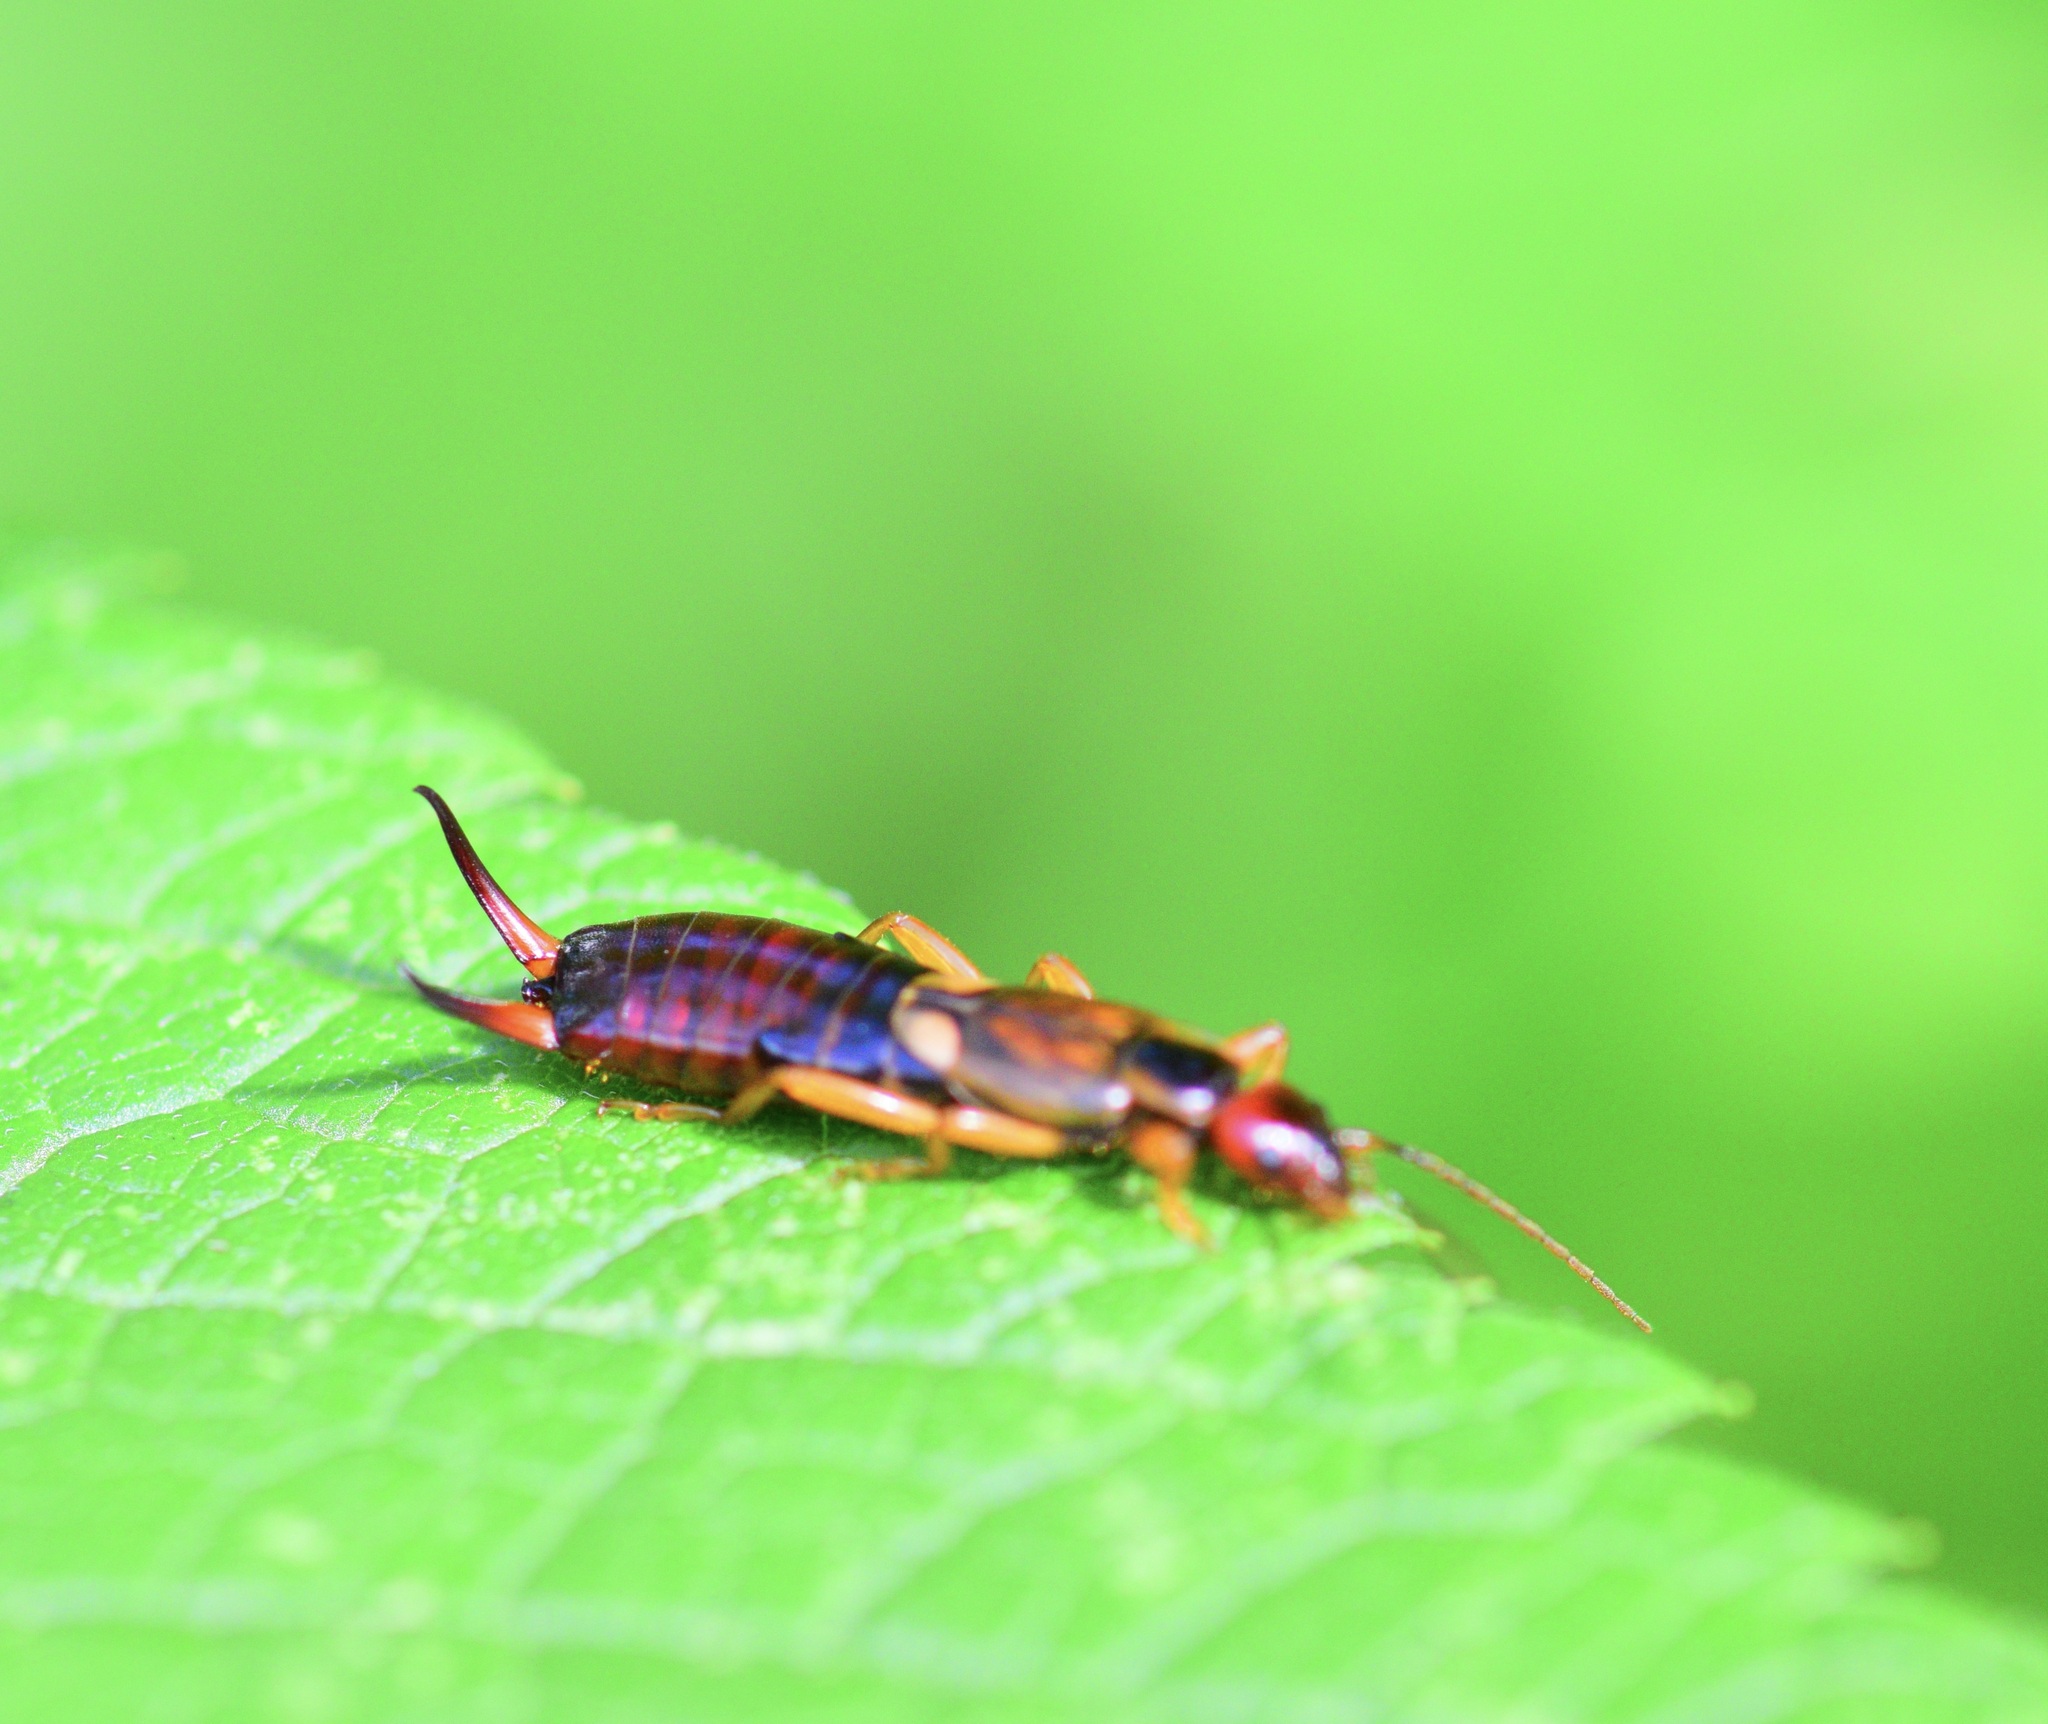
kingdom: Animalia
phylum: Arthropoda
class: Insecta
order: Dermaptera
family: Forficulidae
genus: Forficula
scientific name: Forficula
